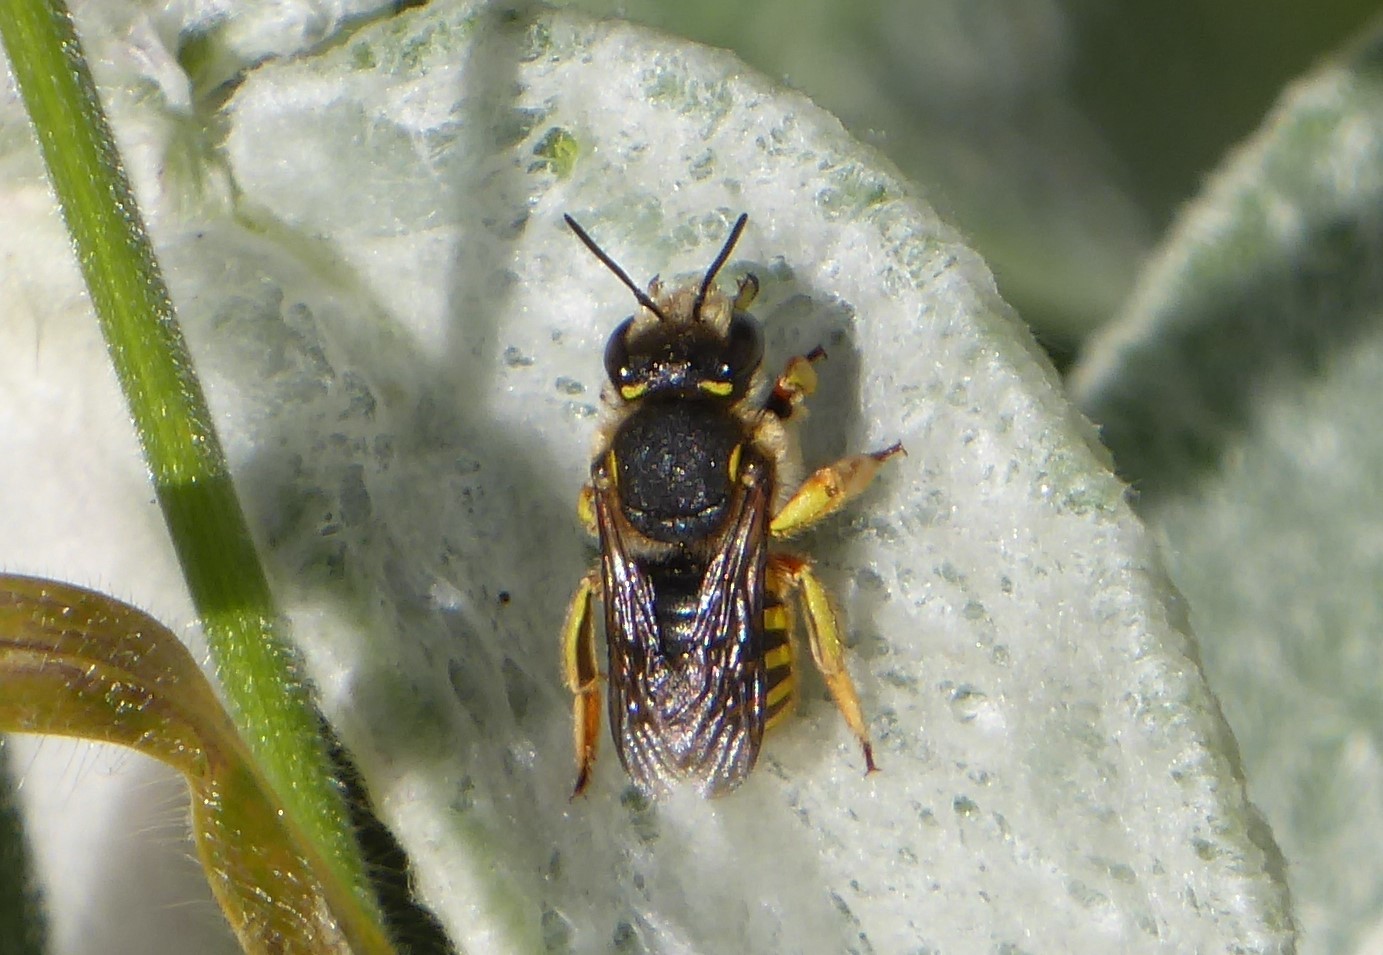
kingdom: Animalia
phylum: Arthropoda
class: Insecta
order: Hymenoptera
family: Megachilidae
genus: Anthidium
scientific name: Anthidium manicatum
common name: Wool carder bee
